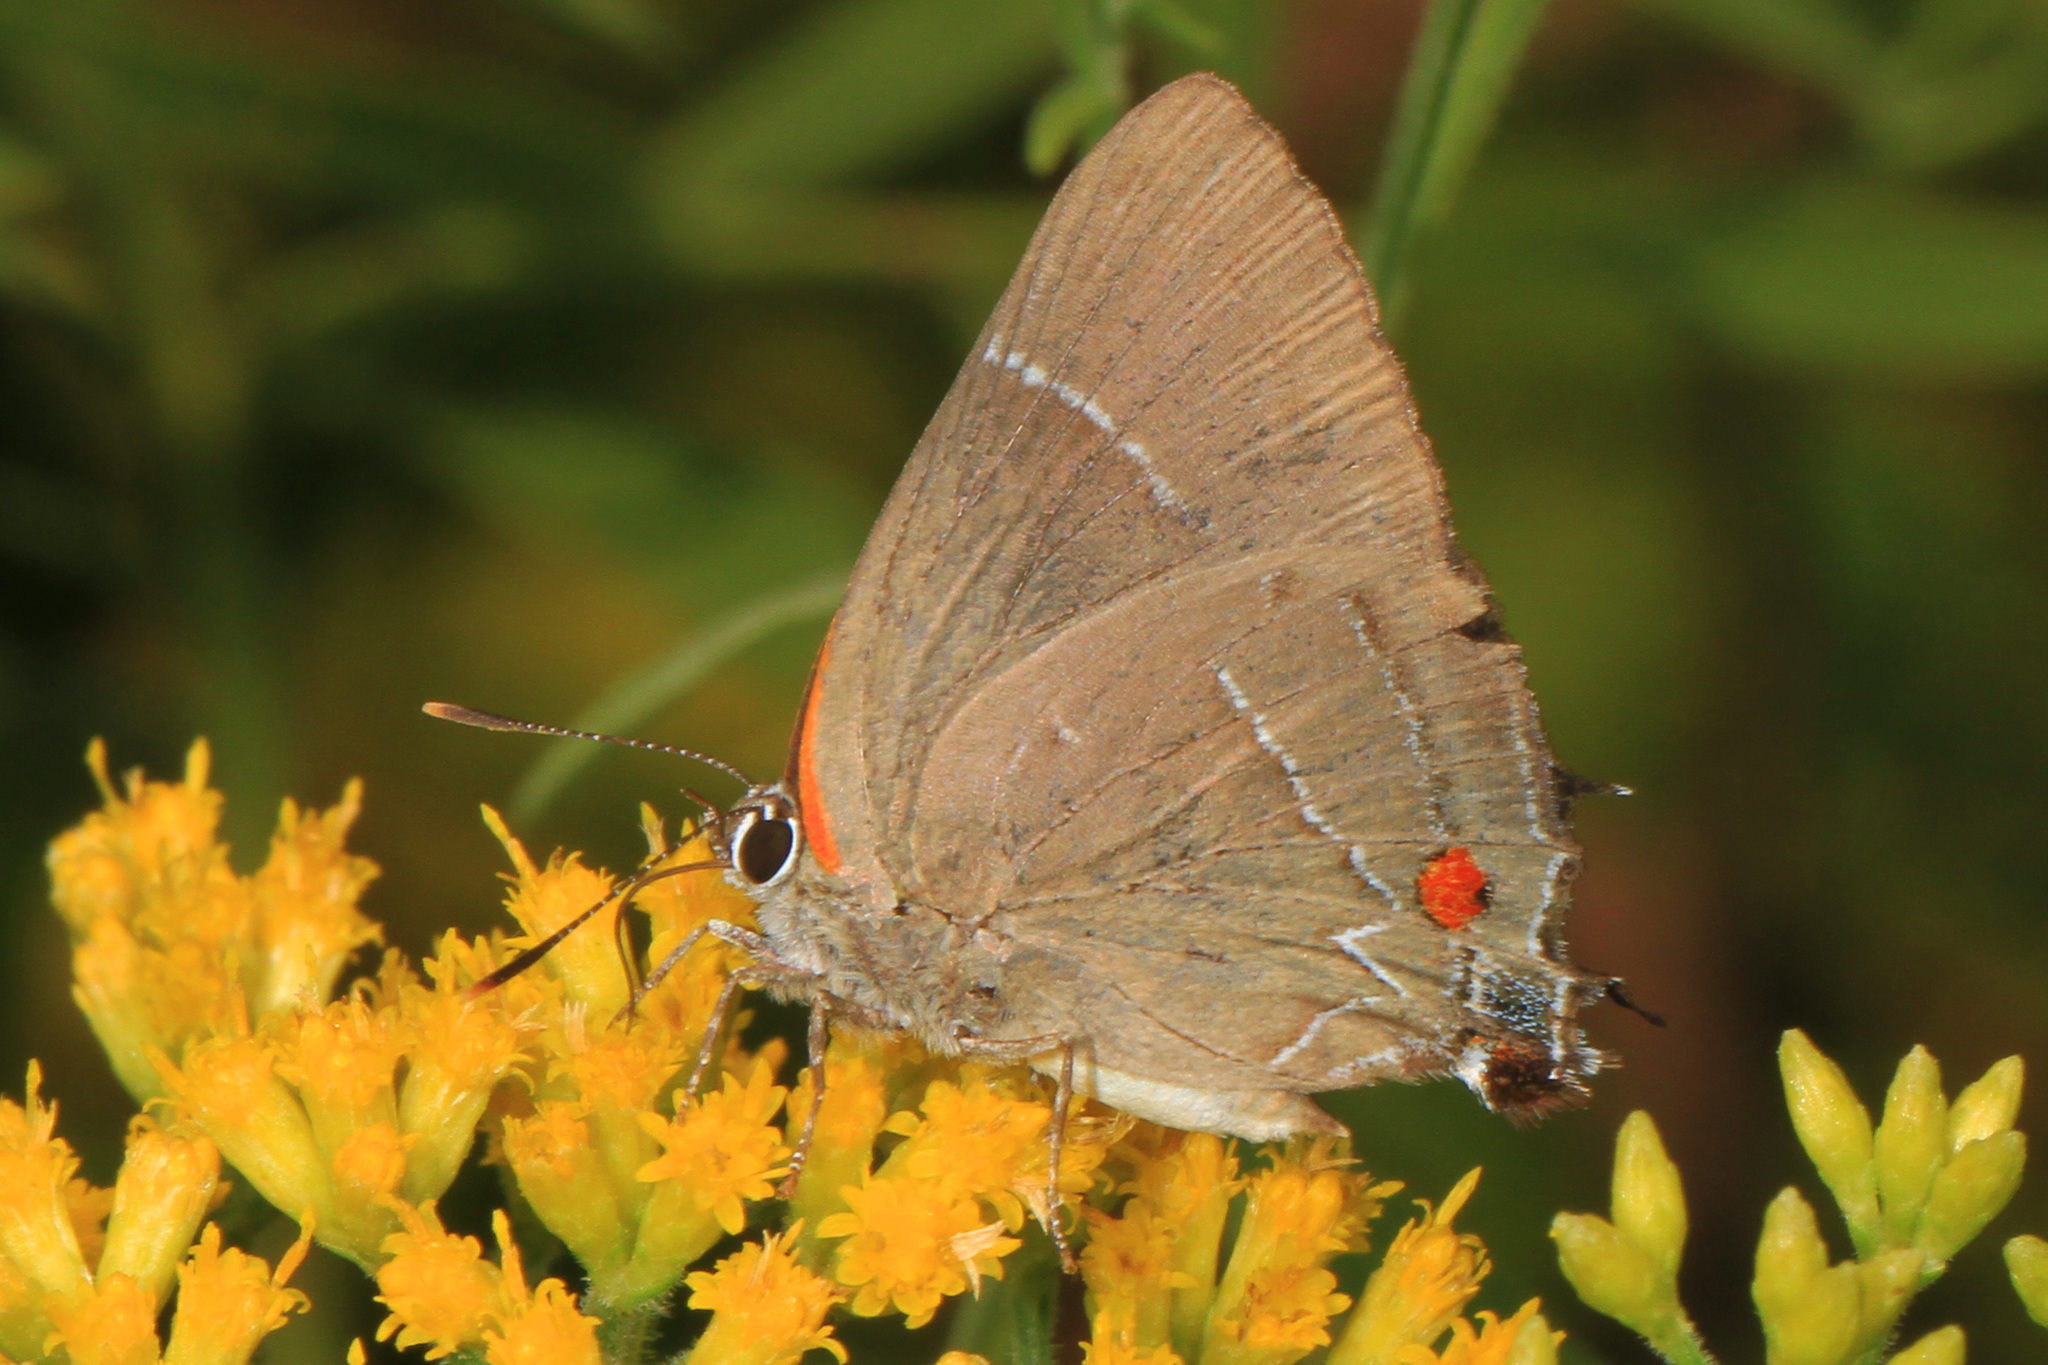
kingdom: Animalia
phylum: Arthropoda
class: Insecta
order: Lepidoptera
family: Lycaenidae
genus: Parrhasius
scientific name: Parrhasius m-album
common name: White m hairstreak
